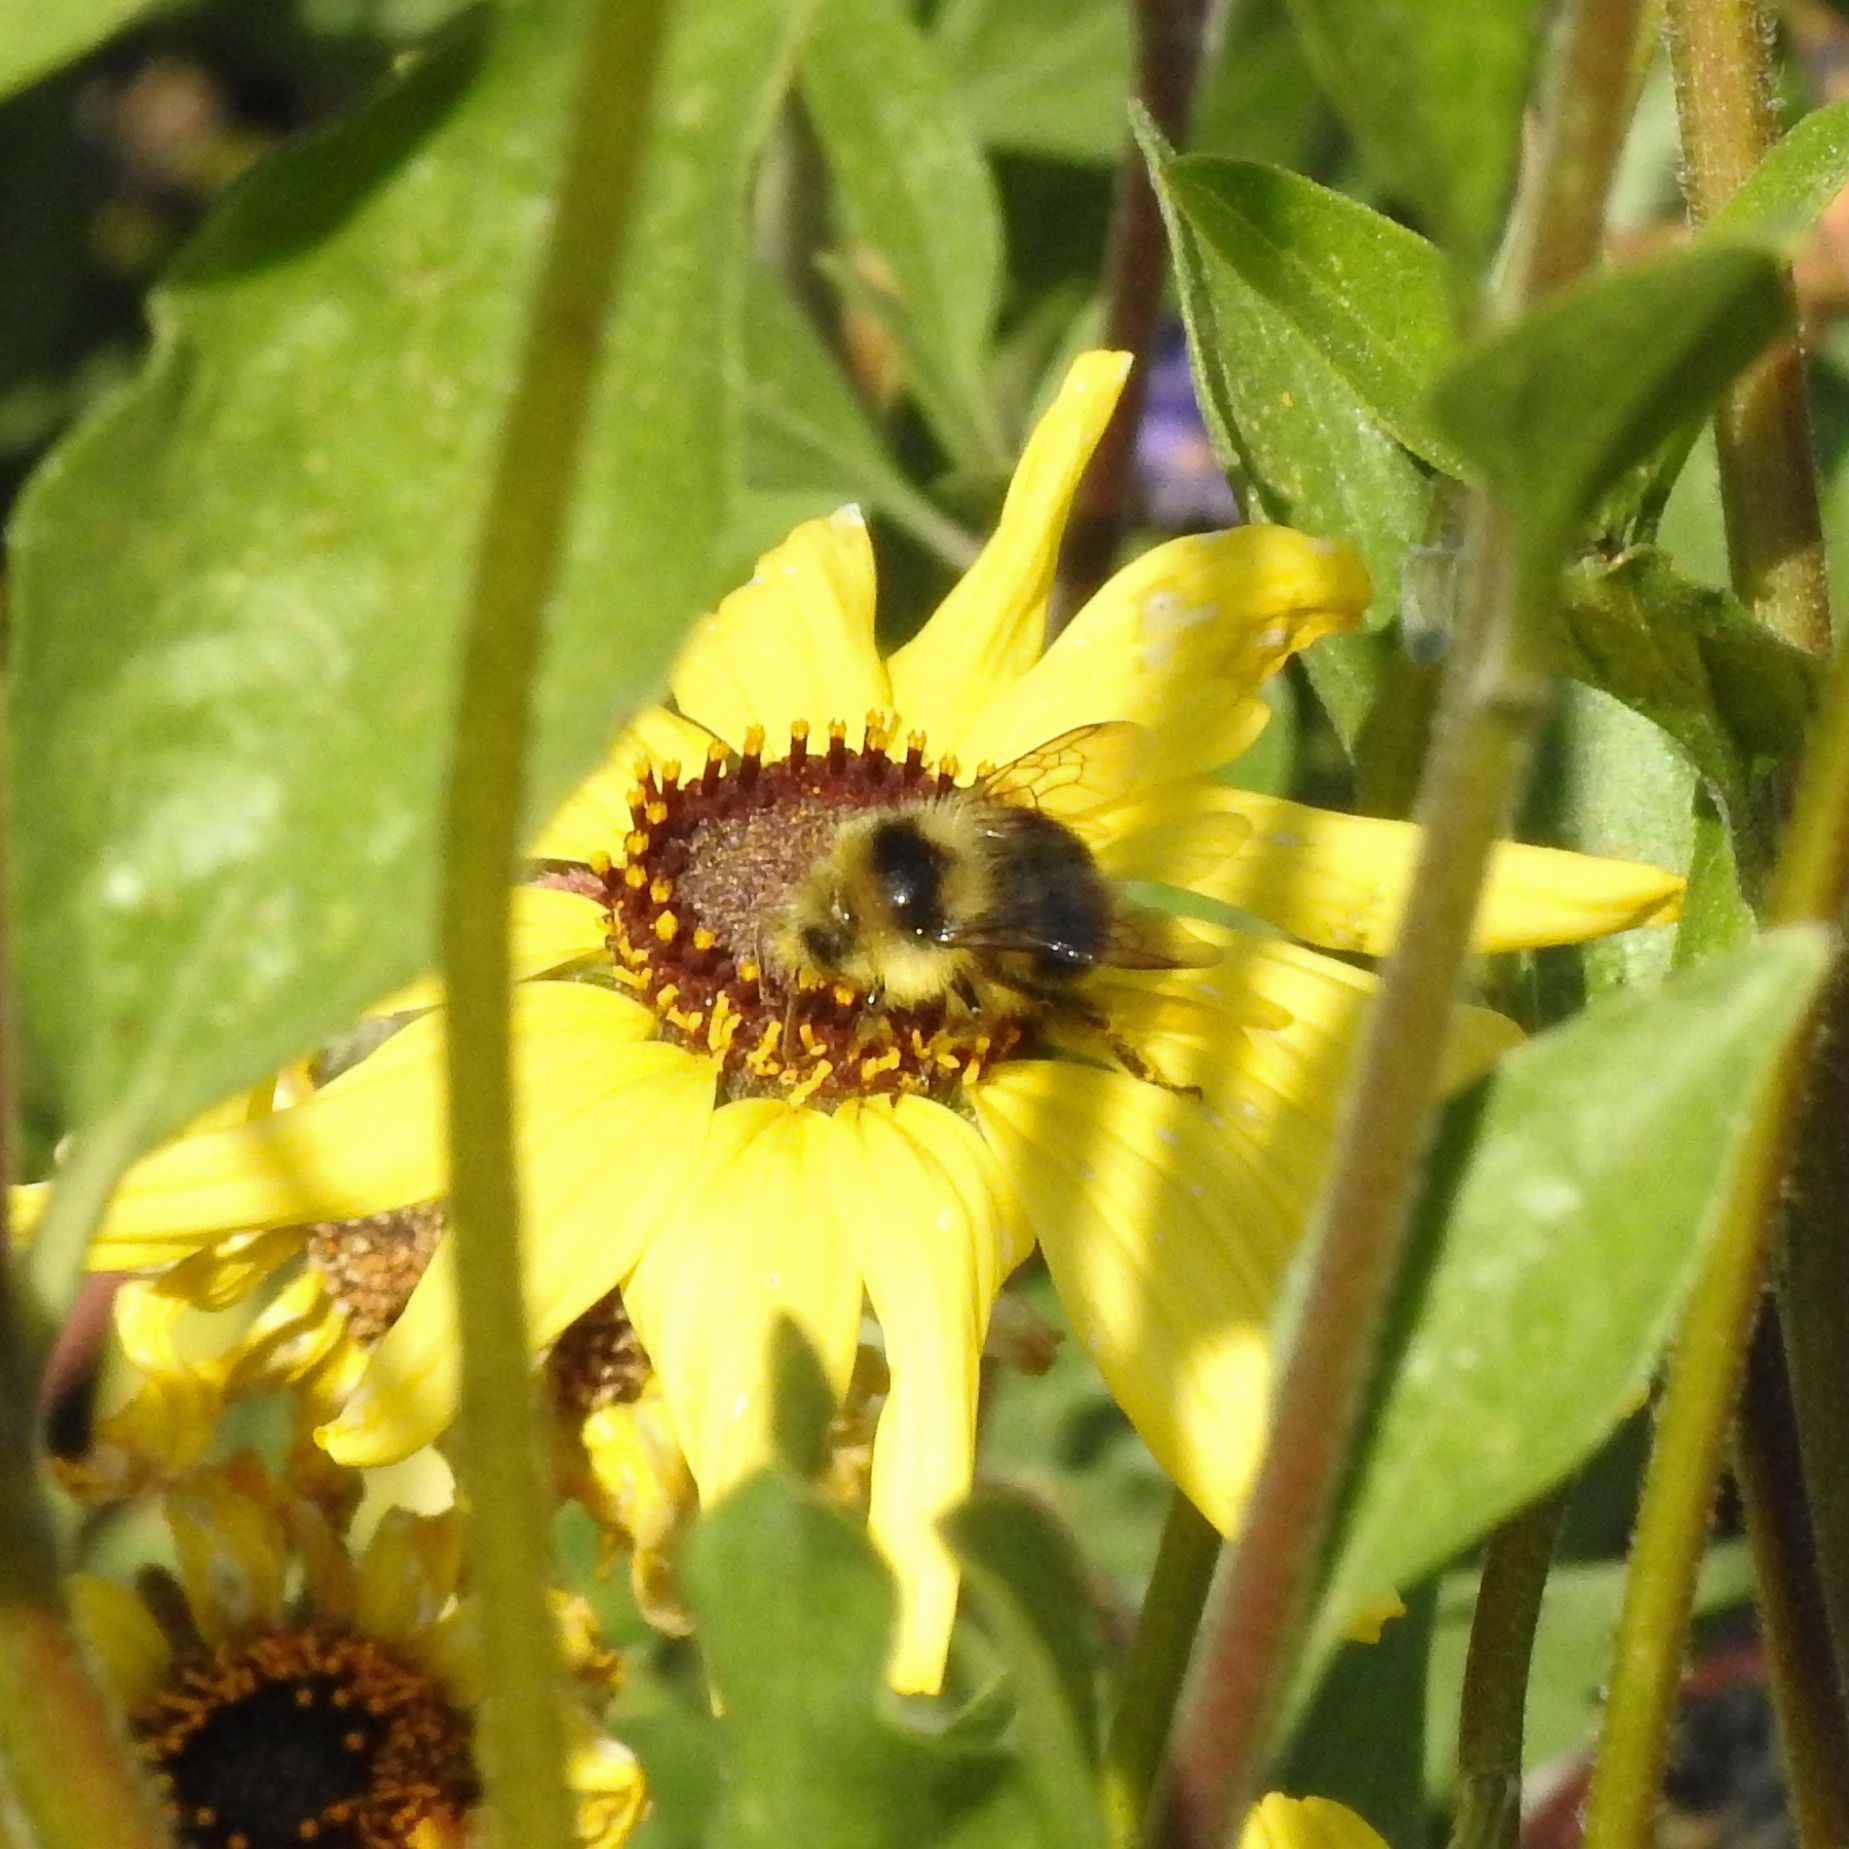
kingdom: Animalia
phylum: Arthropoda
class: Insecta
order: Hymenoptera
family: Apidae
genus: Bombus
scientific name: Bombus melanopygus
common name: Black tail bumble bee
